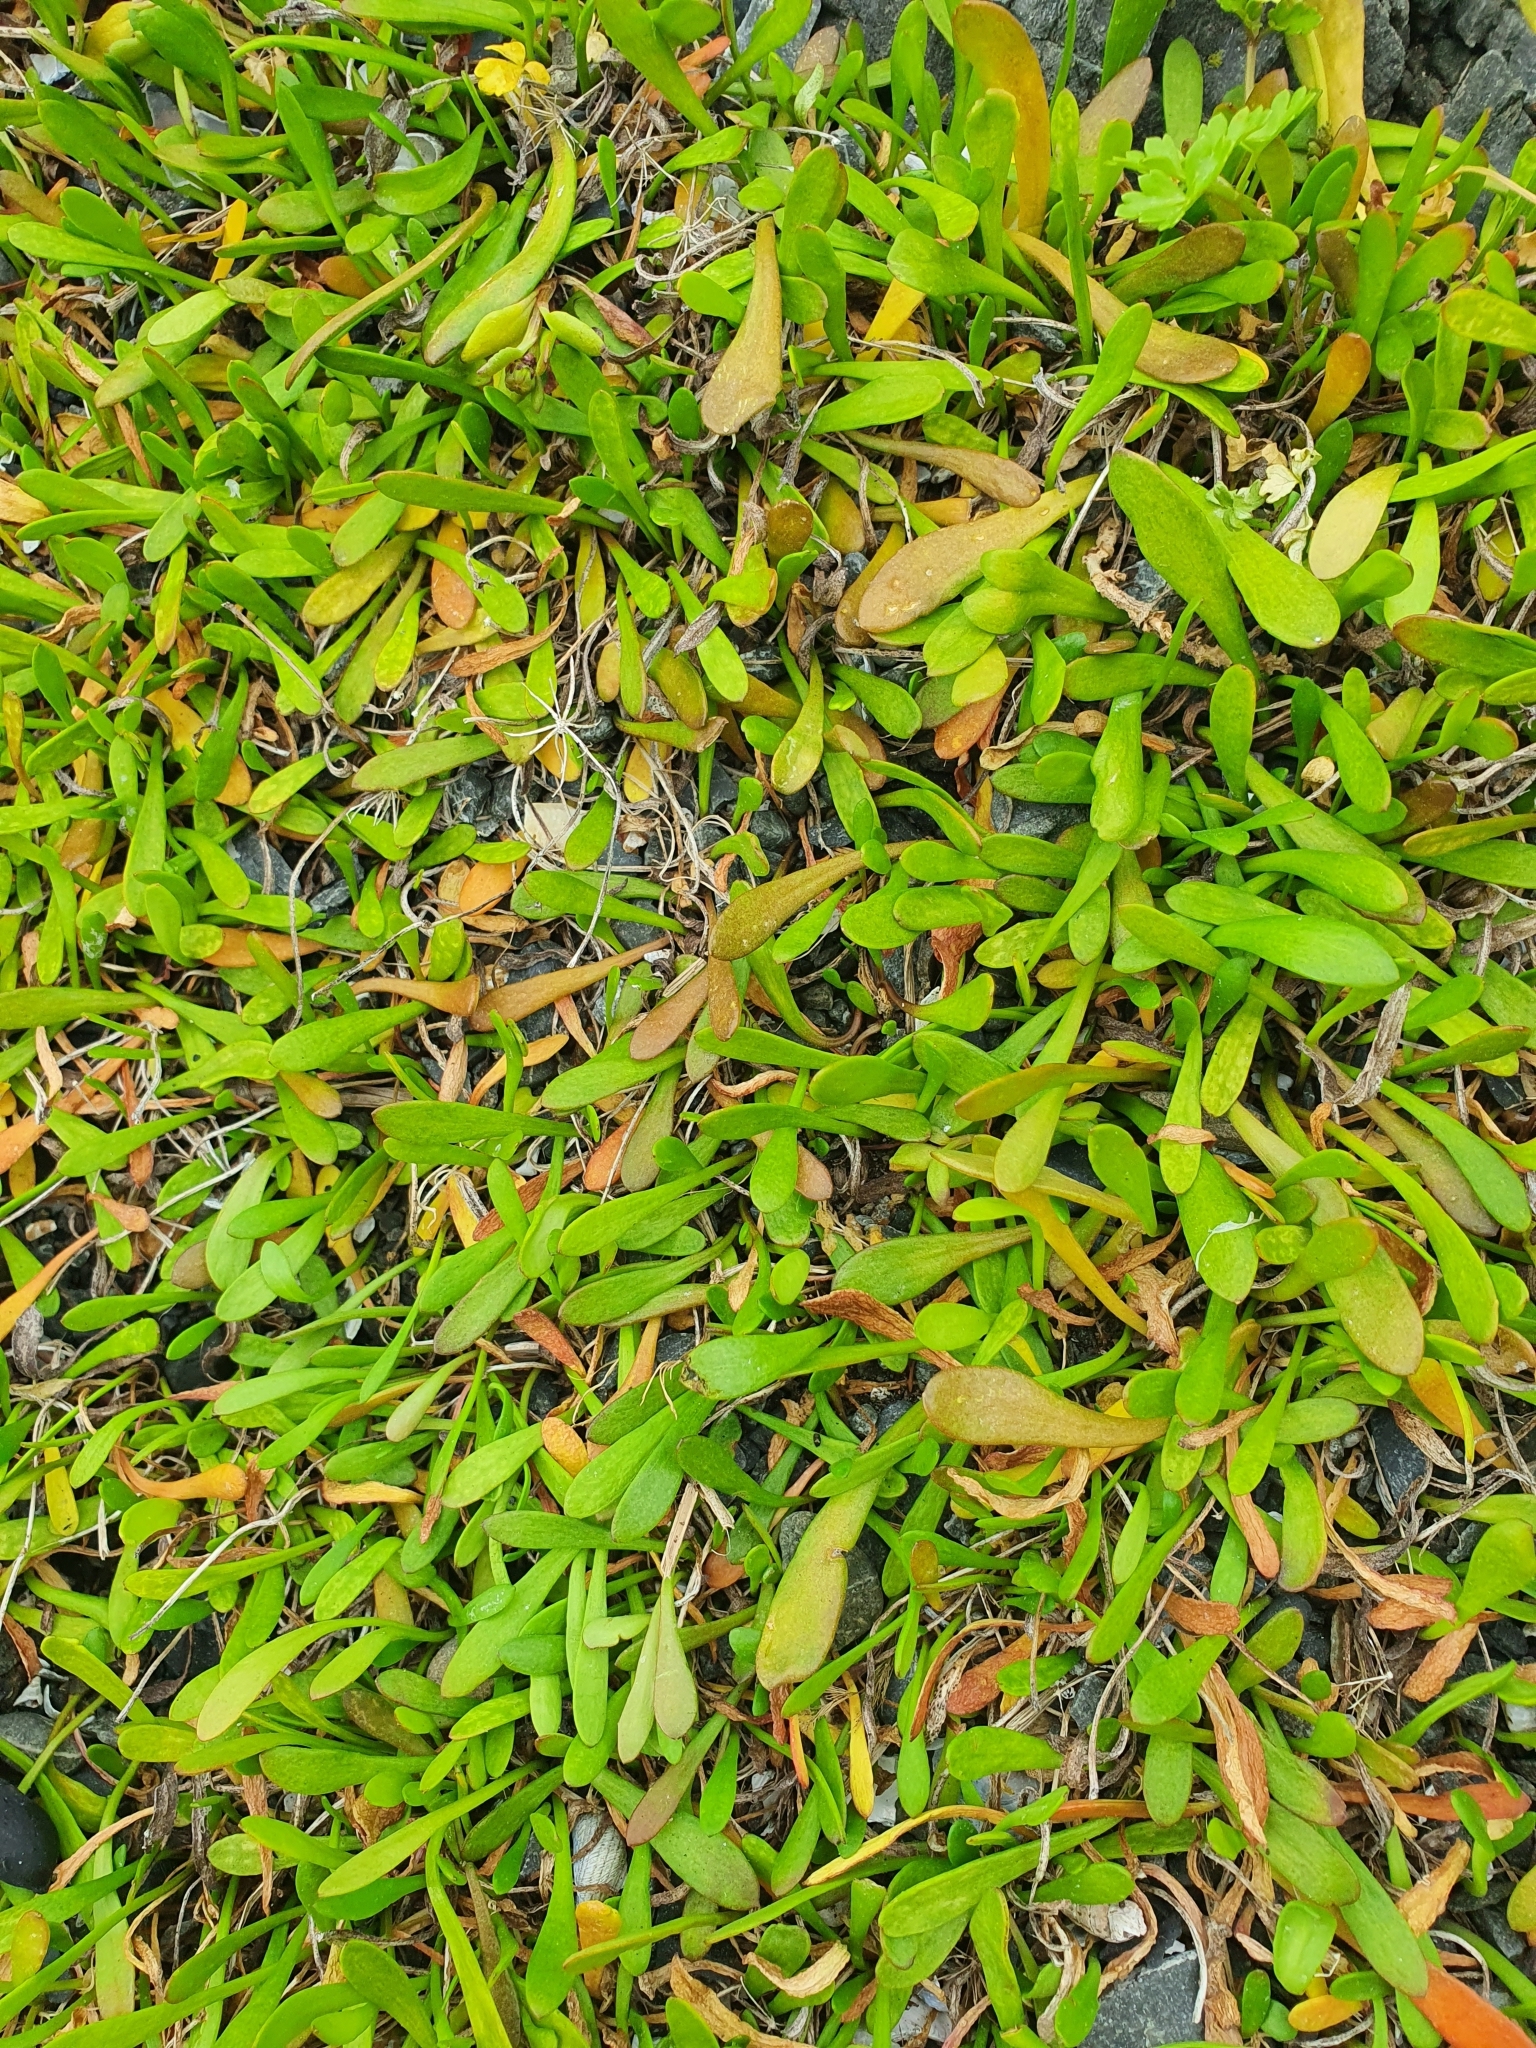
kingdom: Plantae
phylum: Tracheophyta
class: Magnoliopsida
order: Asterales
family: Goodeniaceae
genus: Goodenia
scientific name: Goodenia radicans
